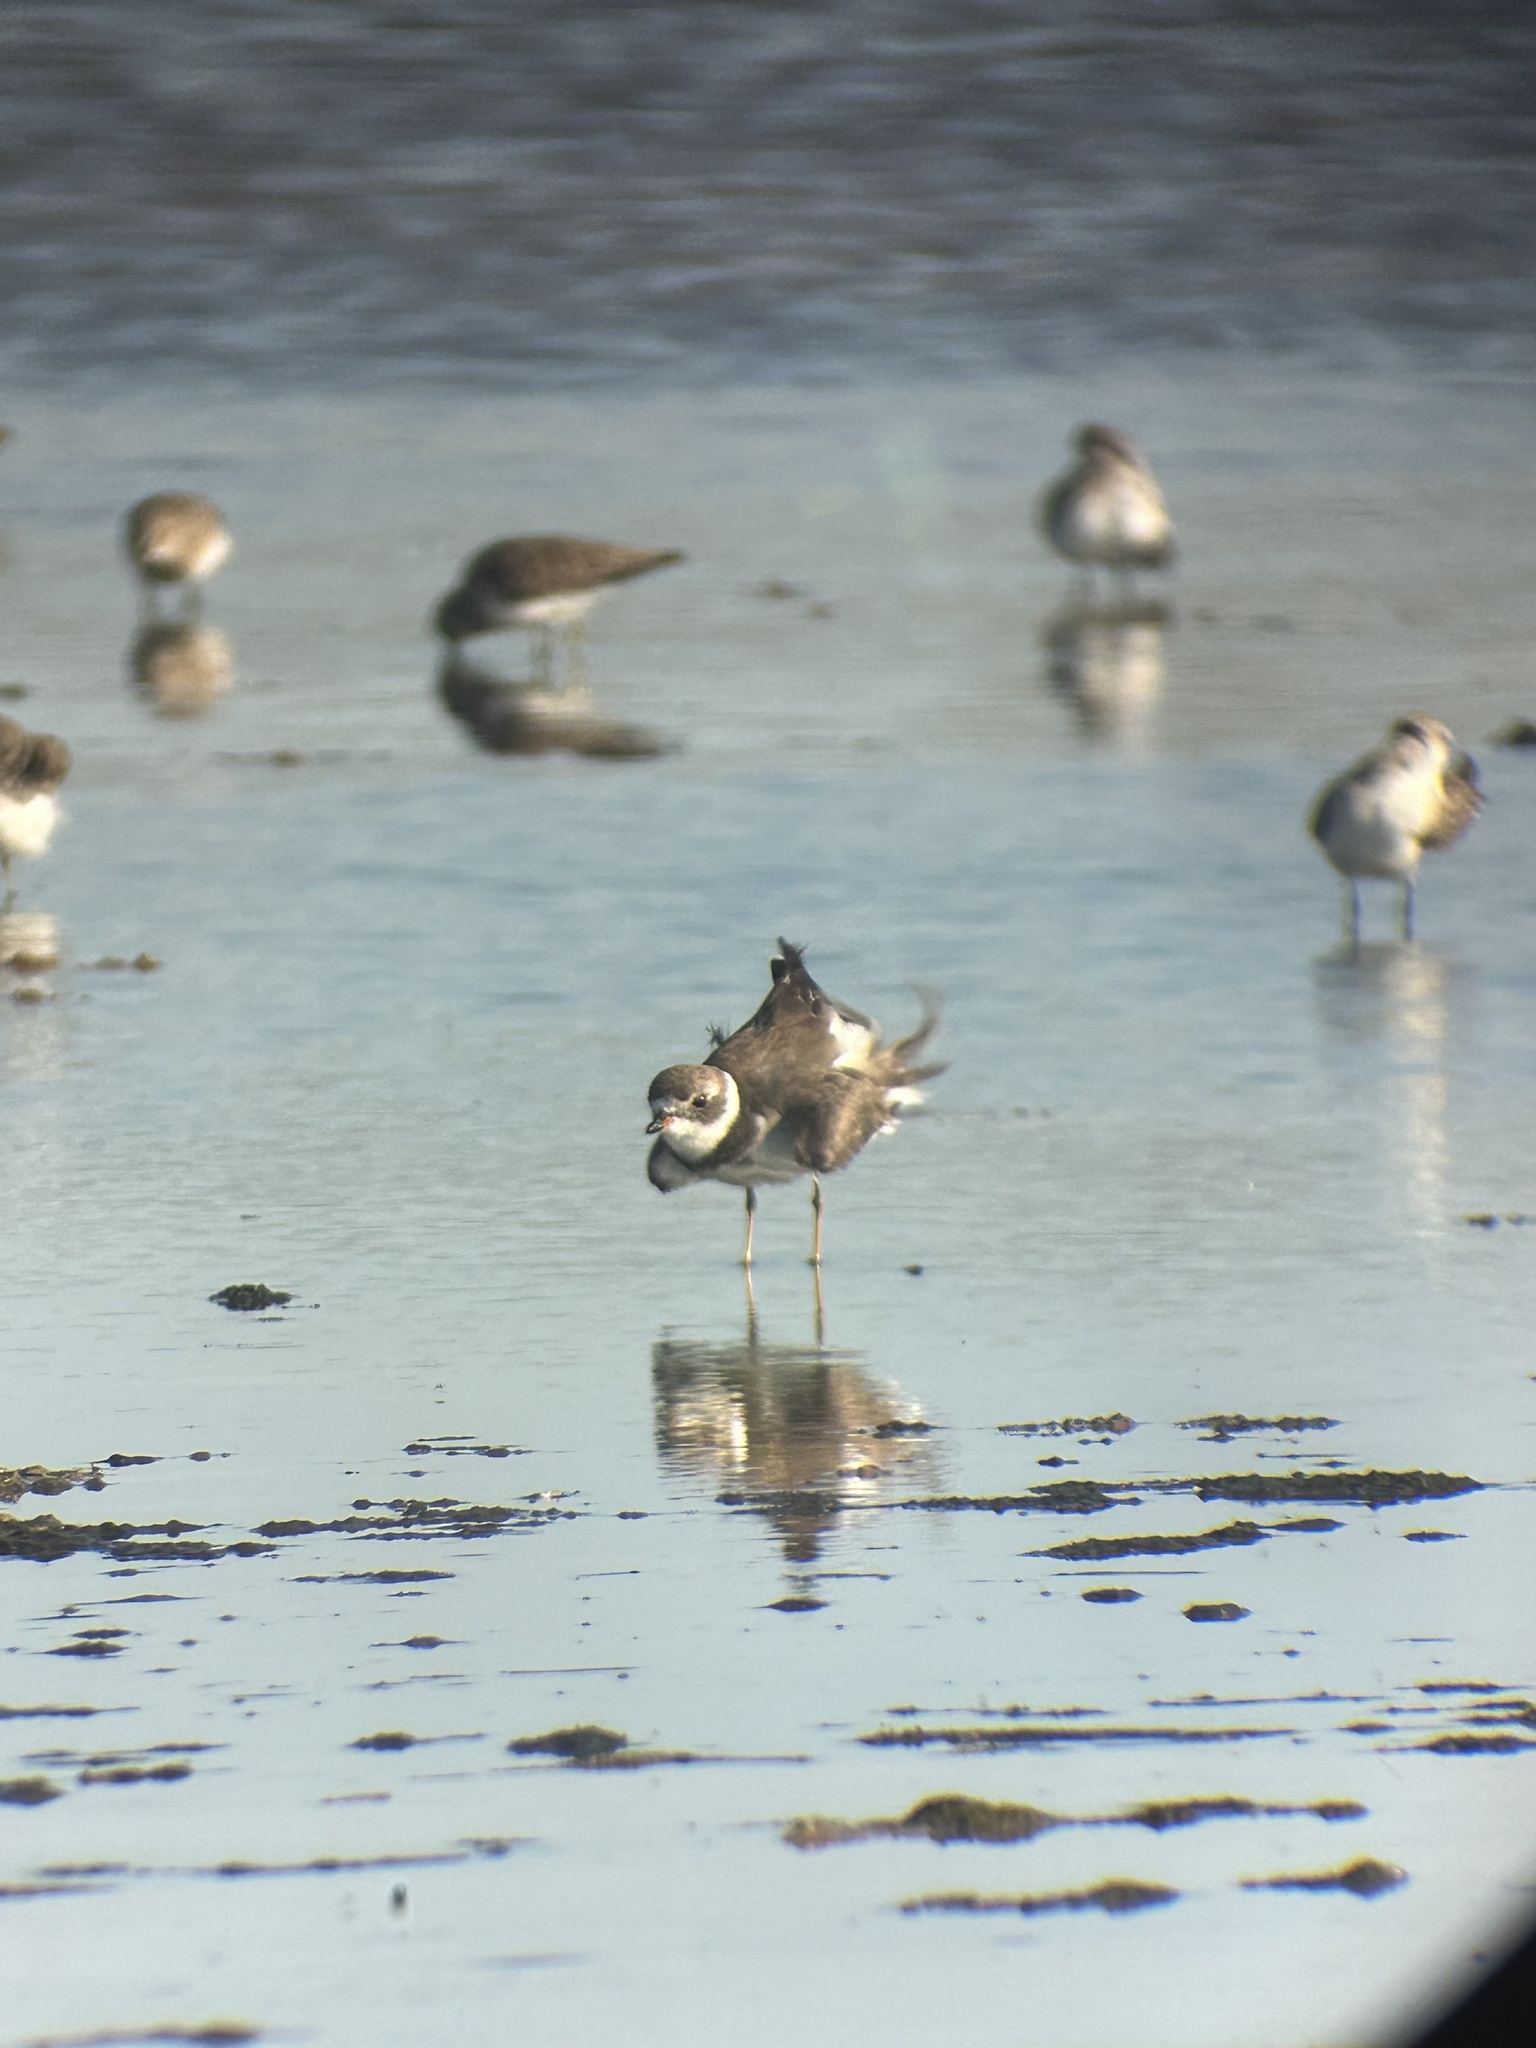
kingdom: Animalia
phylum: Chordata
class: Aves
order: Charadriiformes
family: Charadriidae
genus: Charadrius
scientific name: Charadrius semipalmatus
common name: Semipalmated plover
